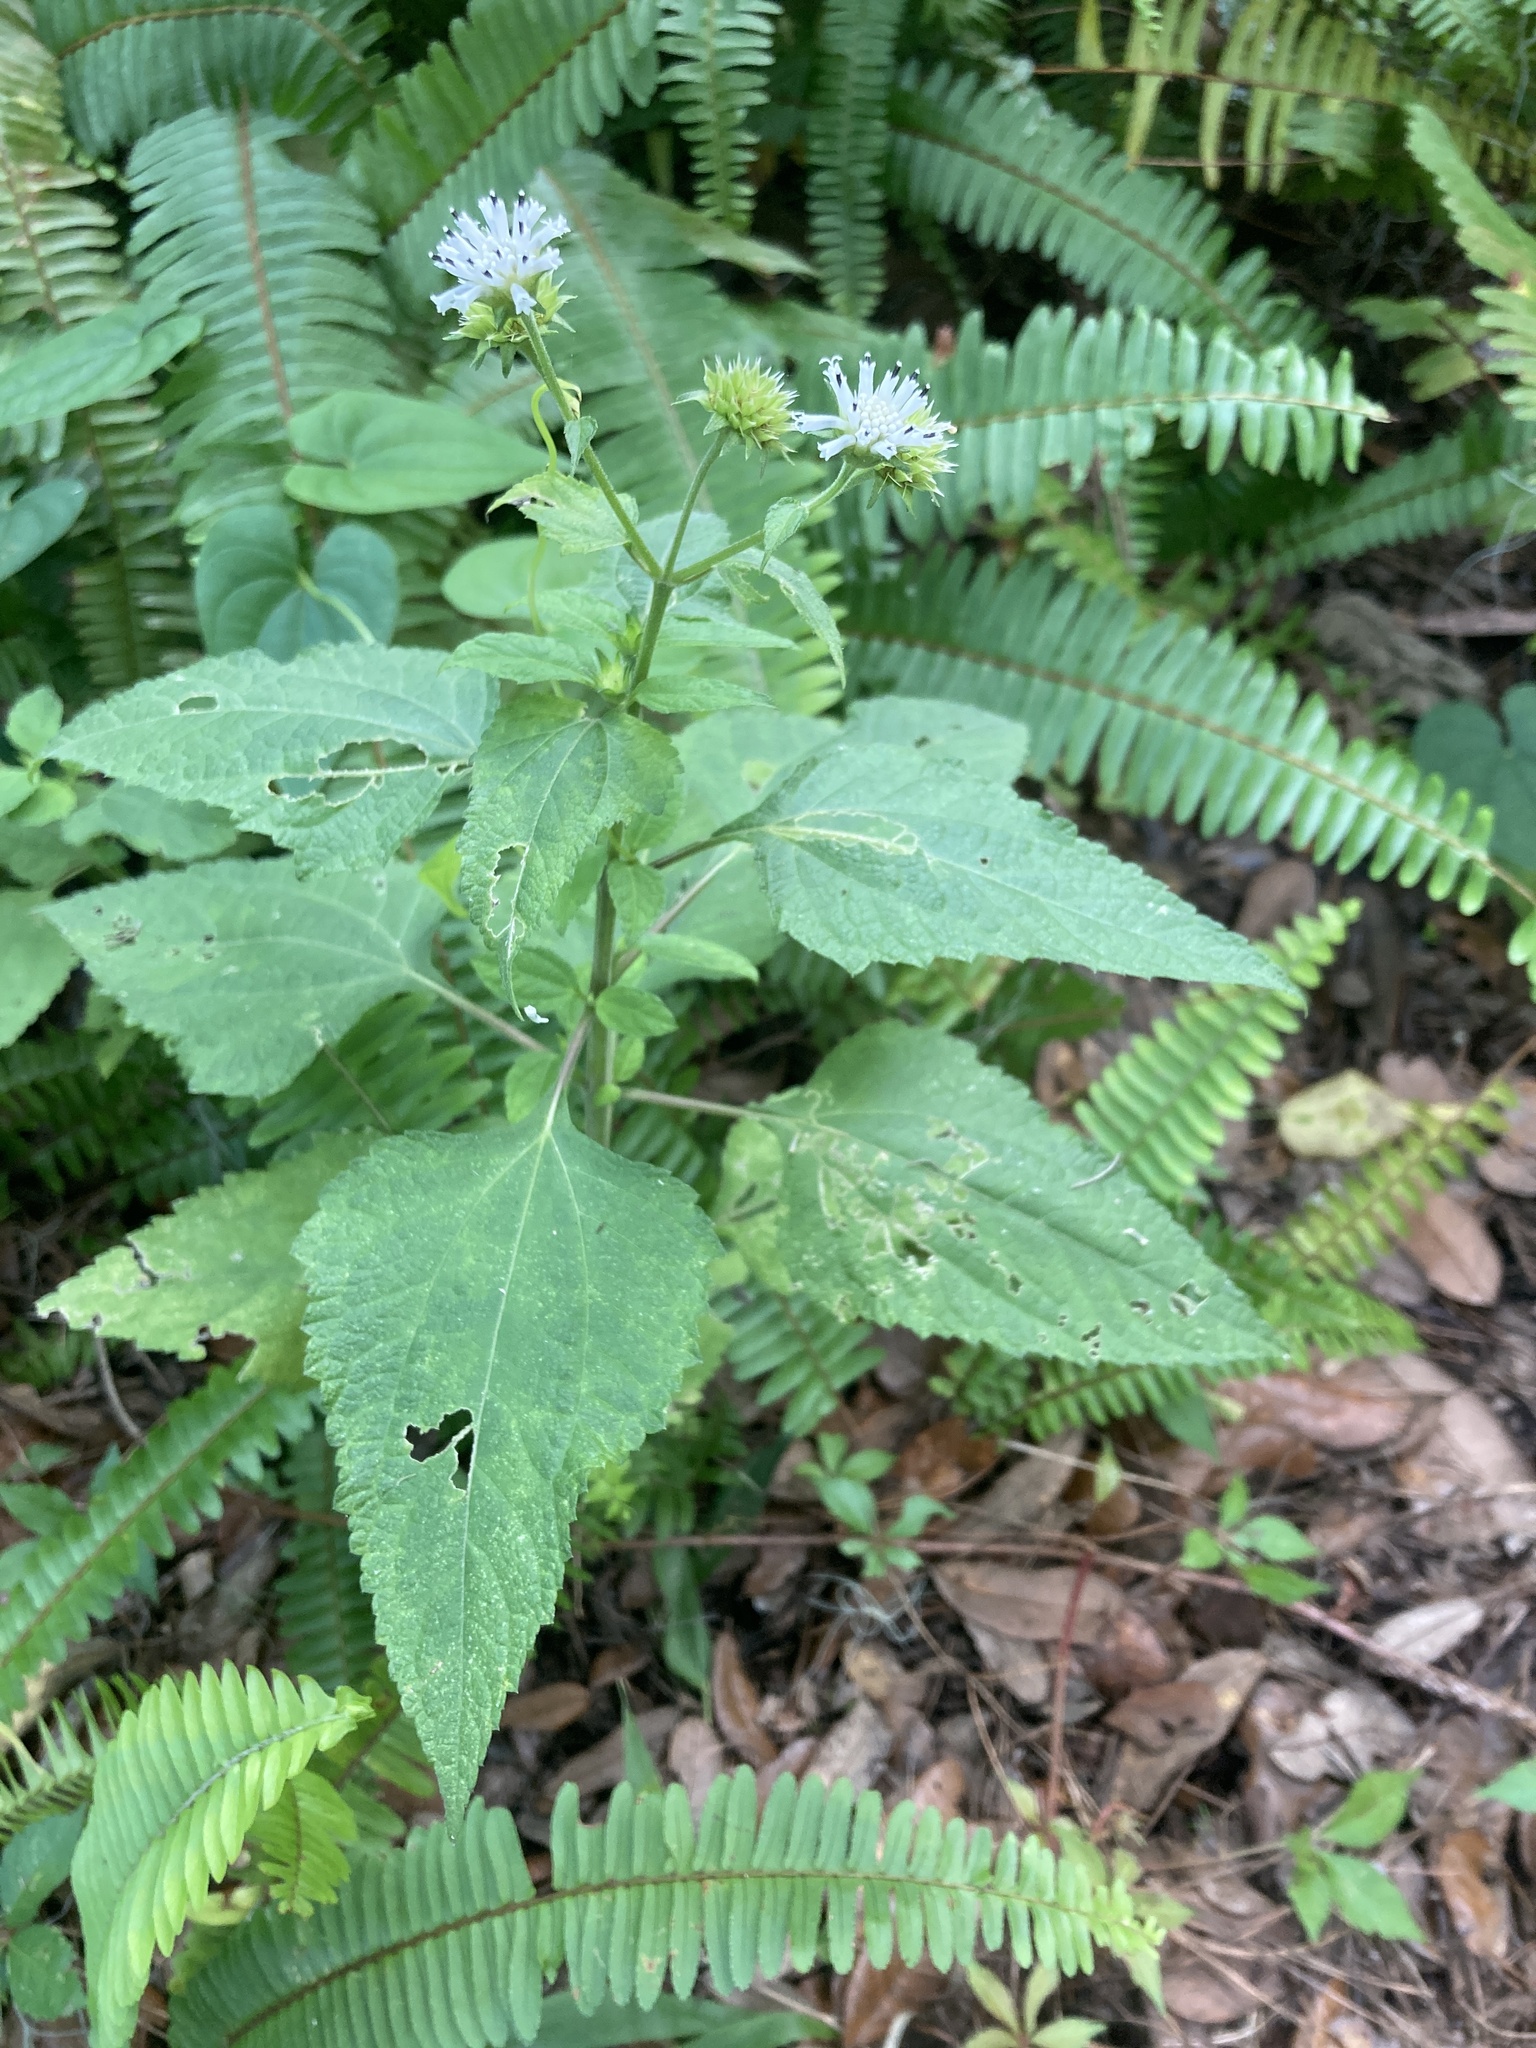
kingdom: Plantae
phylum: Tracheophyta
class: Magnoliopsida
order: Asterales
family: Asteraceae
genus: Melanthera
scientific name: Melanthera nivea
